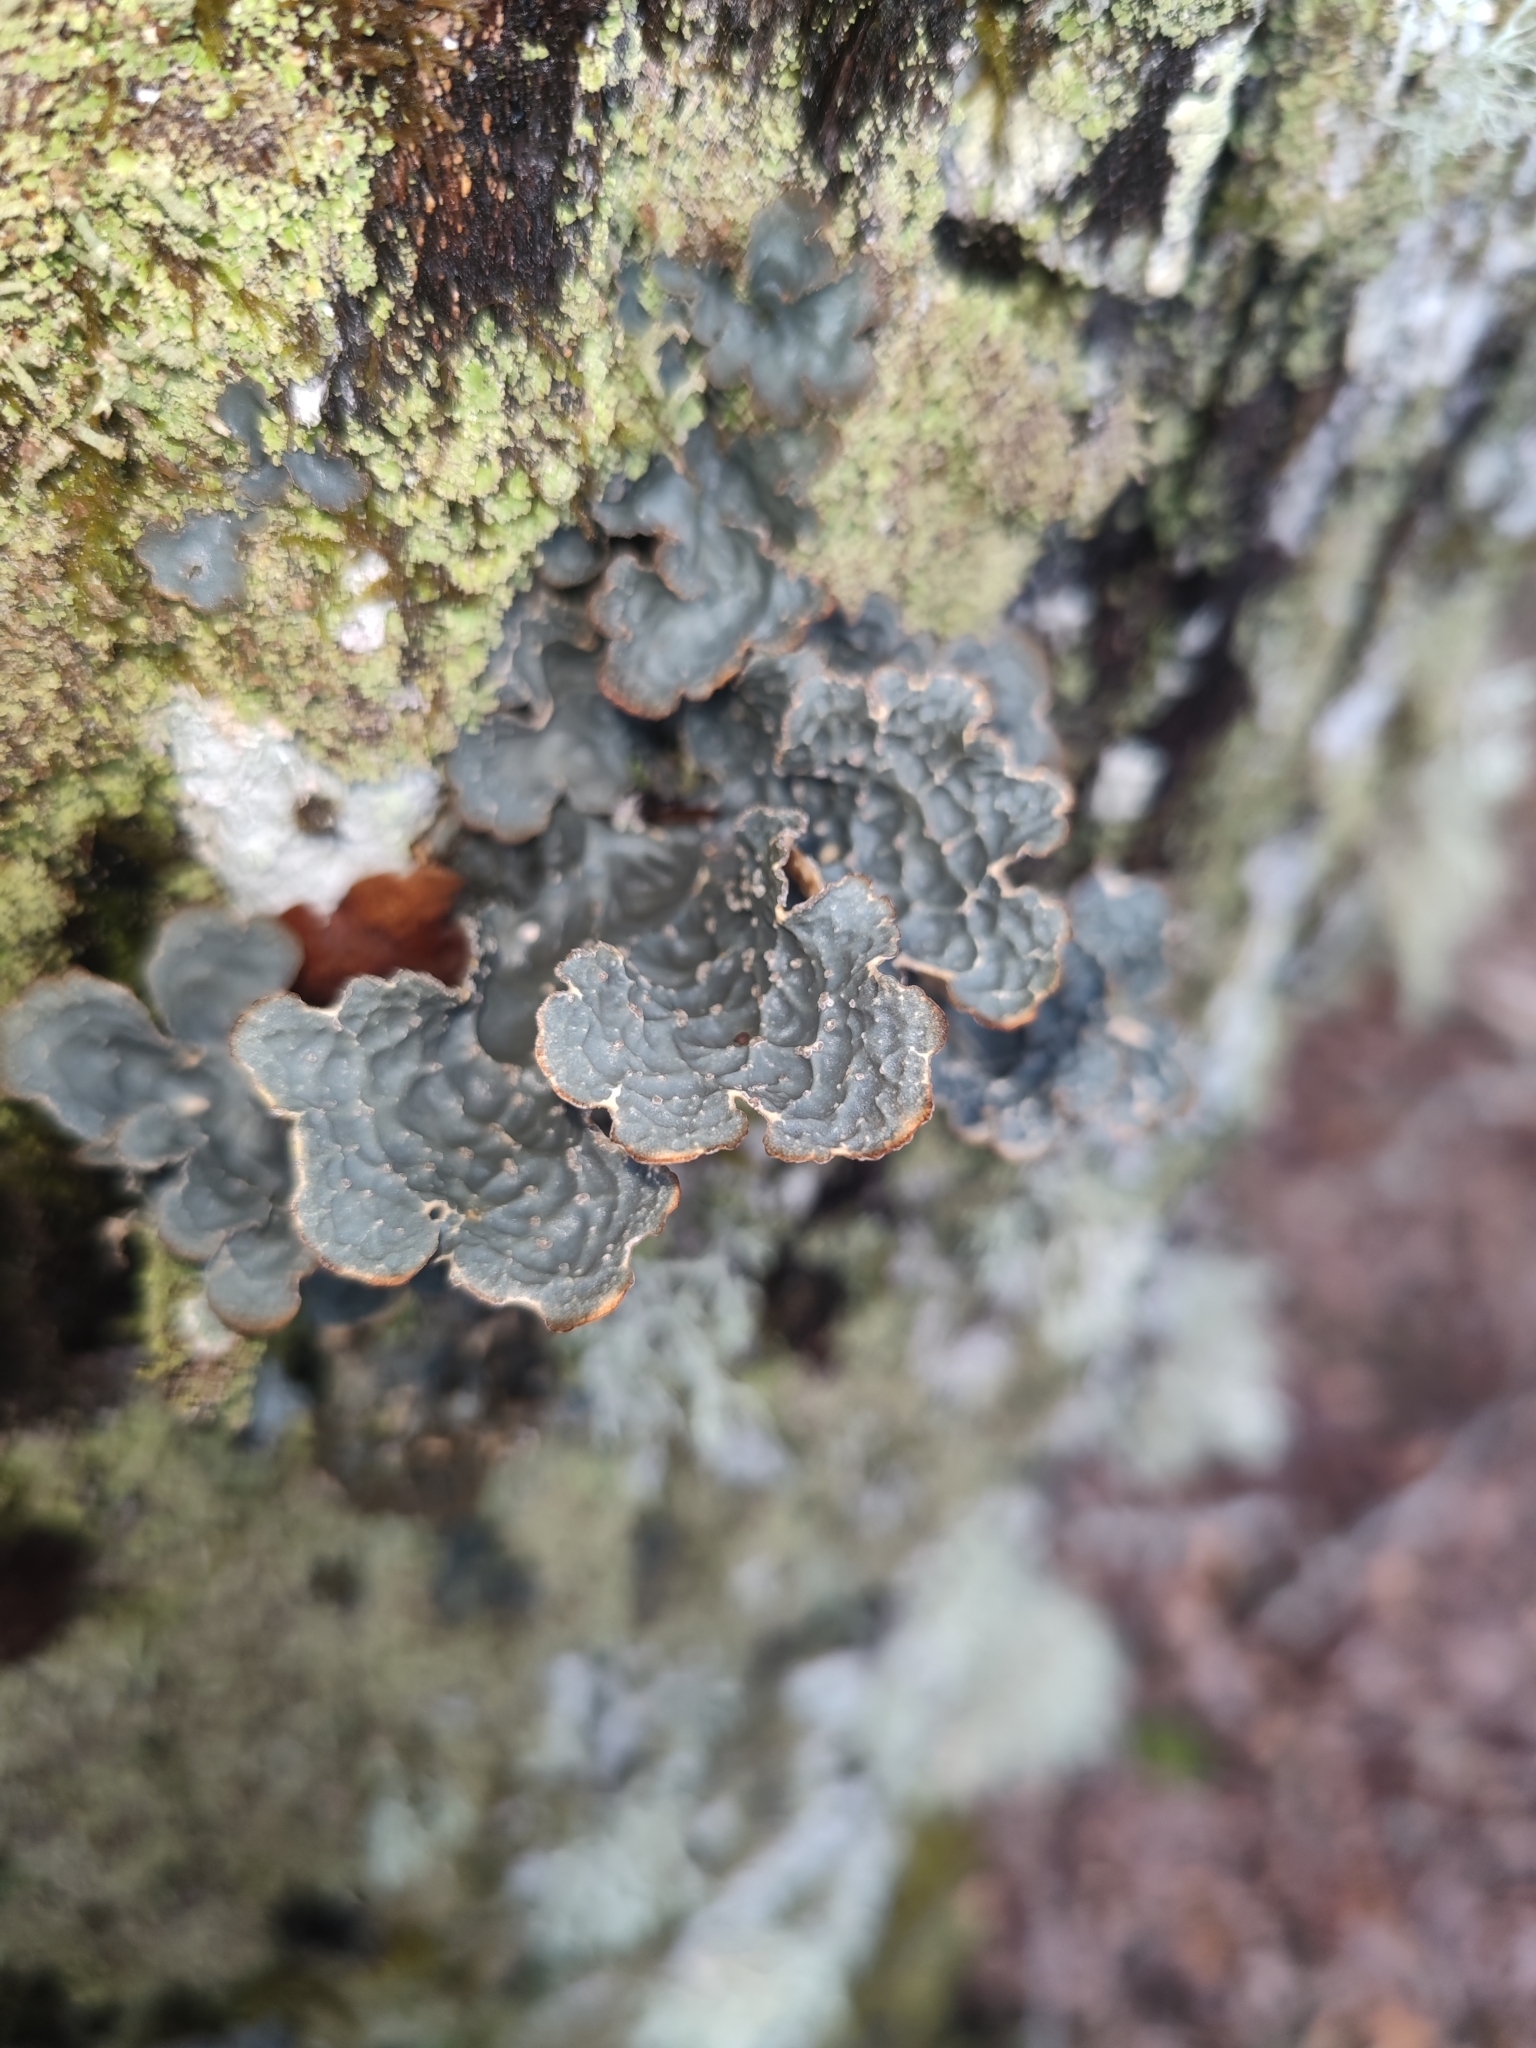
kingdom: Fungi
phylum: Ascomycota
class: Lecanoromycetes
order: Peltigerales
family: Lobariaceae
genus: Lobarina
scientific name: Lobarina scrobiculata
